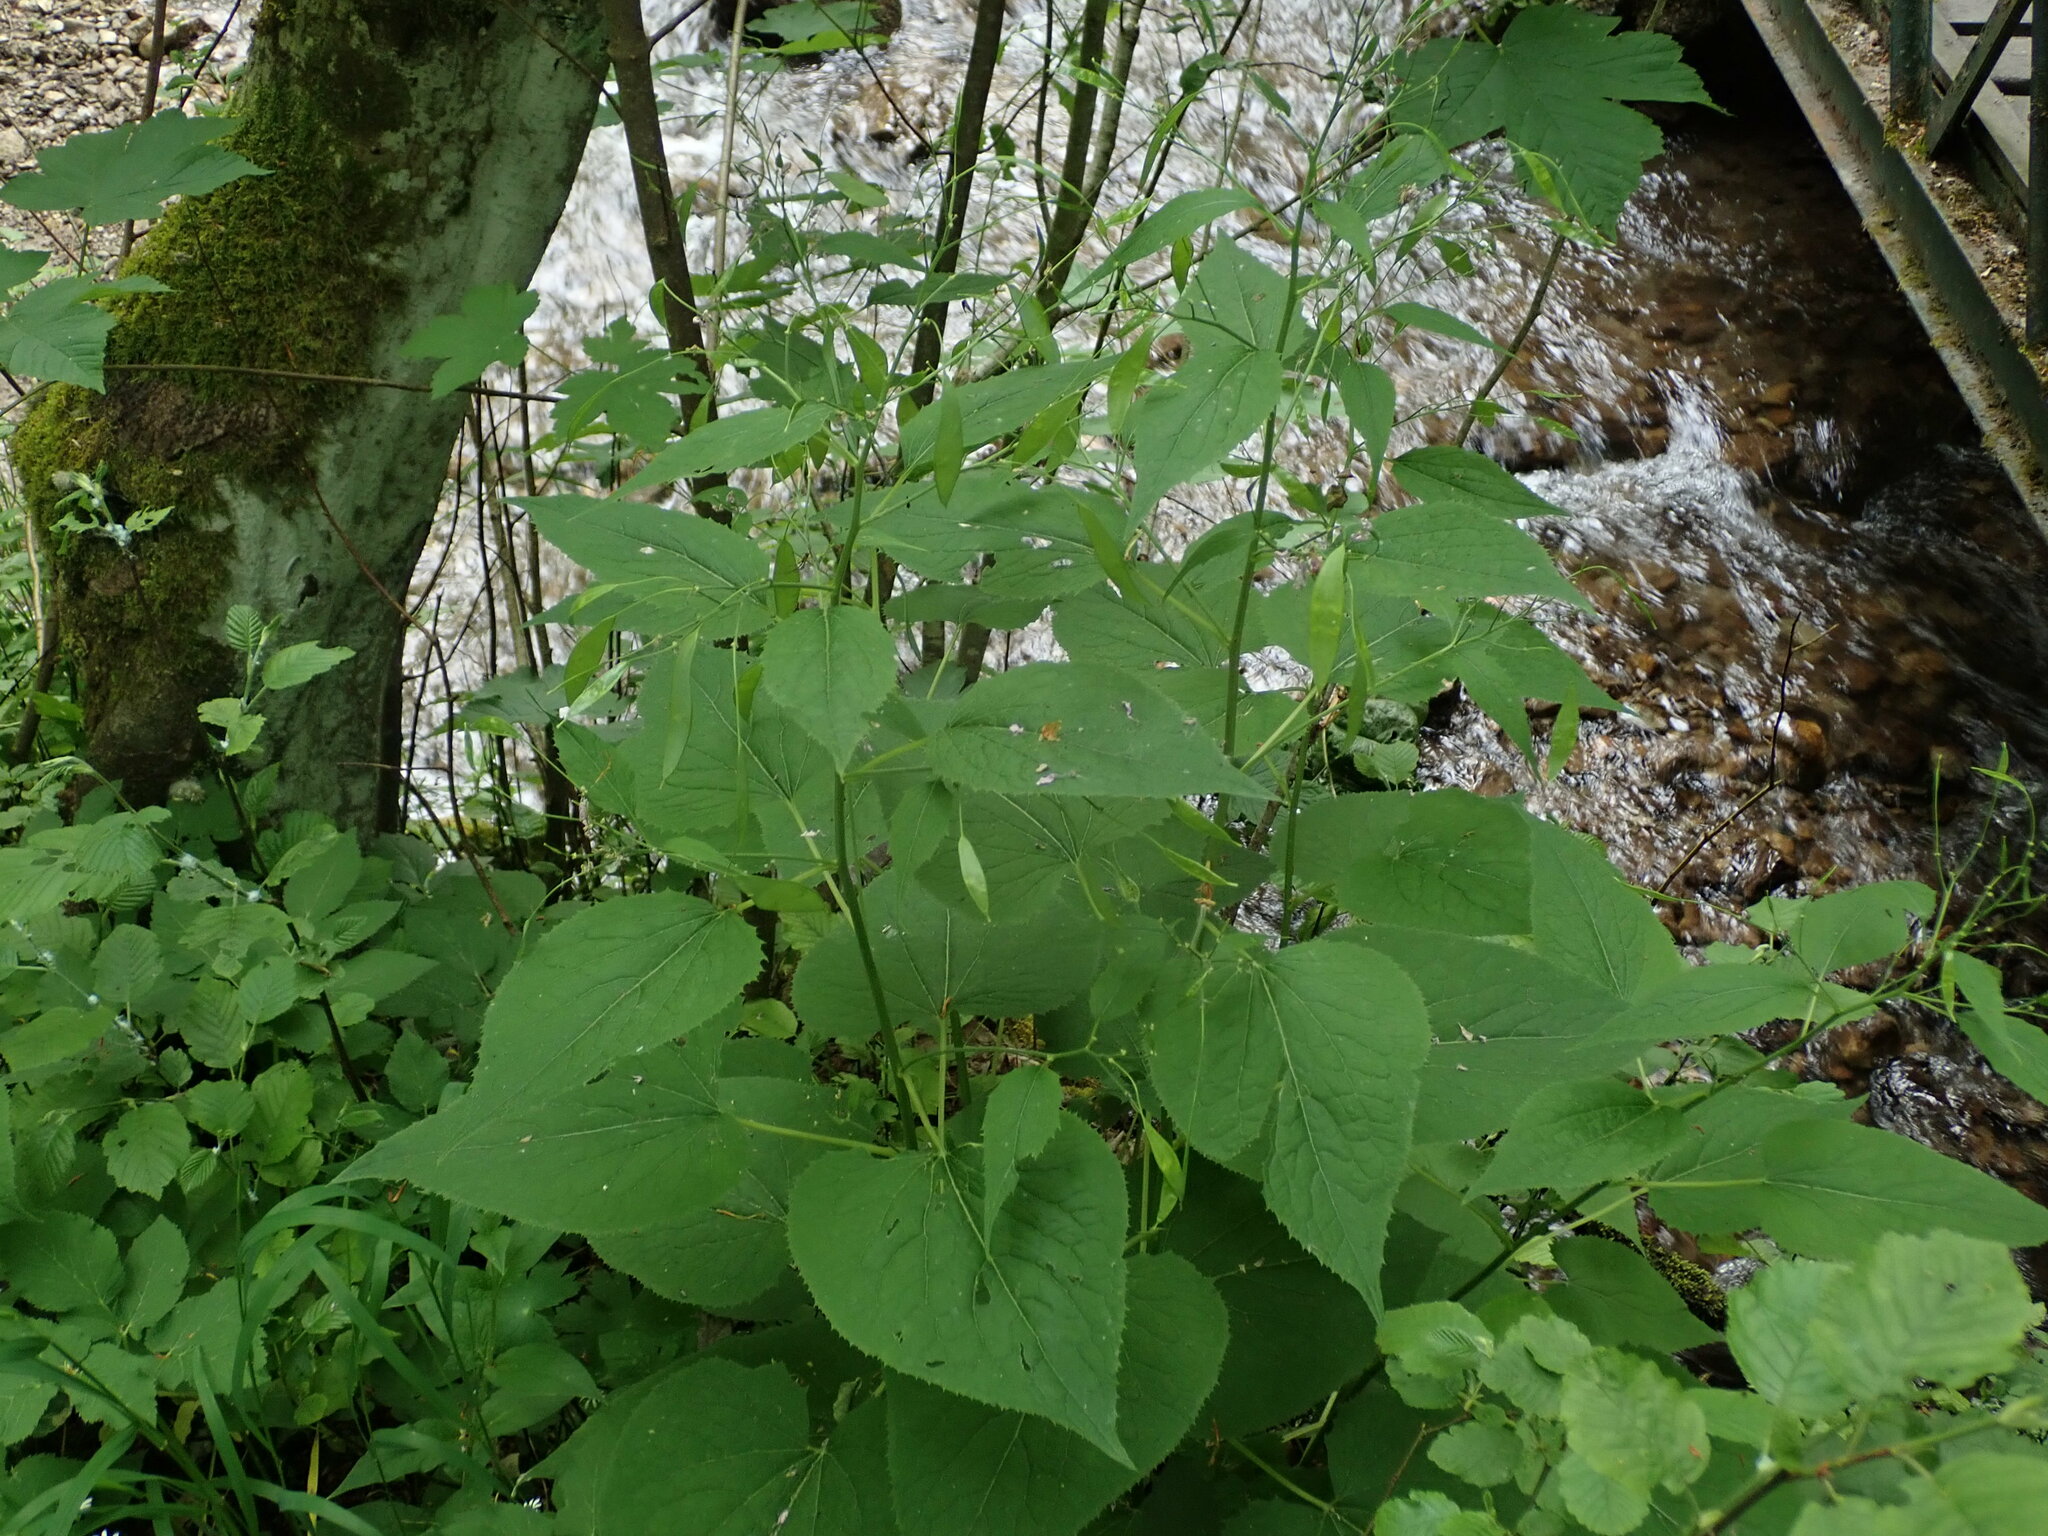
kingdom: Plantae
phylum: Tracheophyta
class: Magnoliopsida
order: Brassicales
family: Brassicaceae
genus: Lunaria
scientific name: Lunaria rediviva
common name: Perennial honesty
